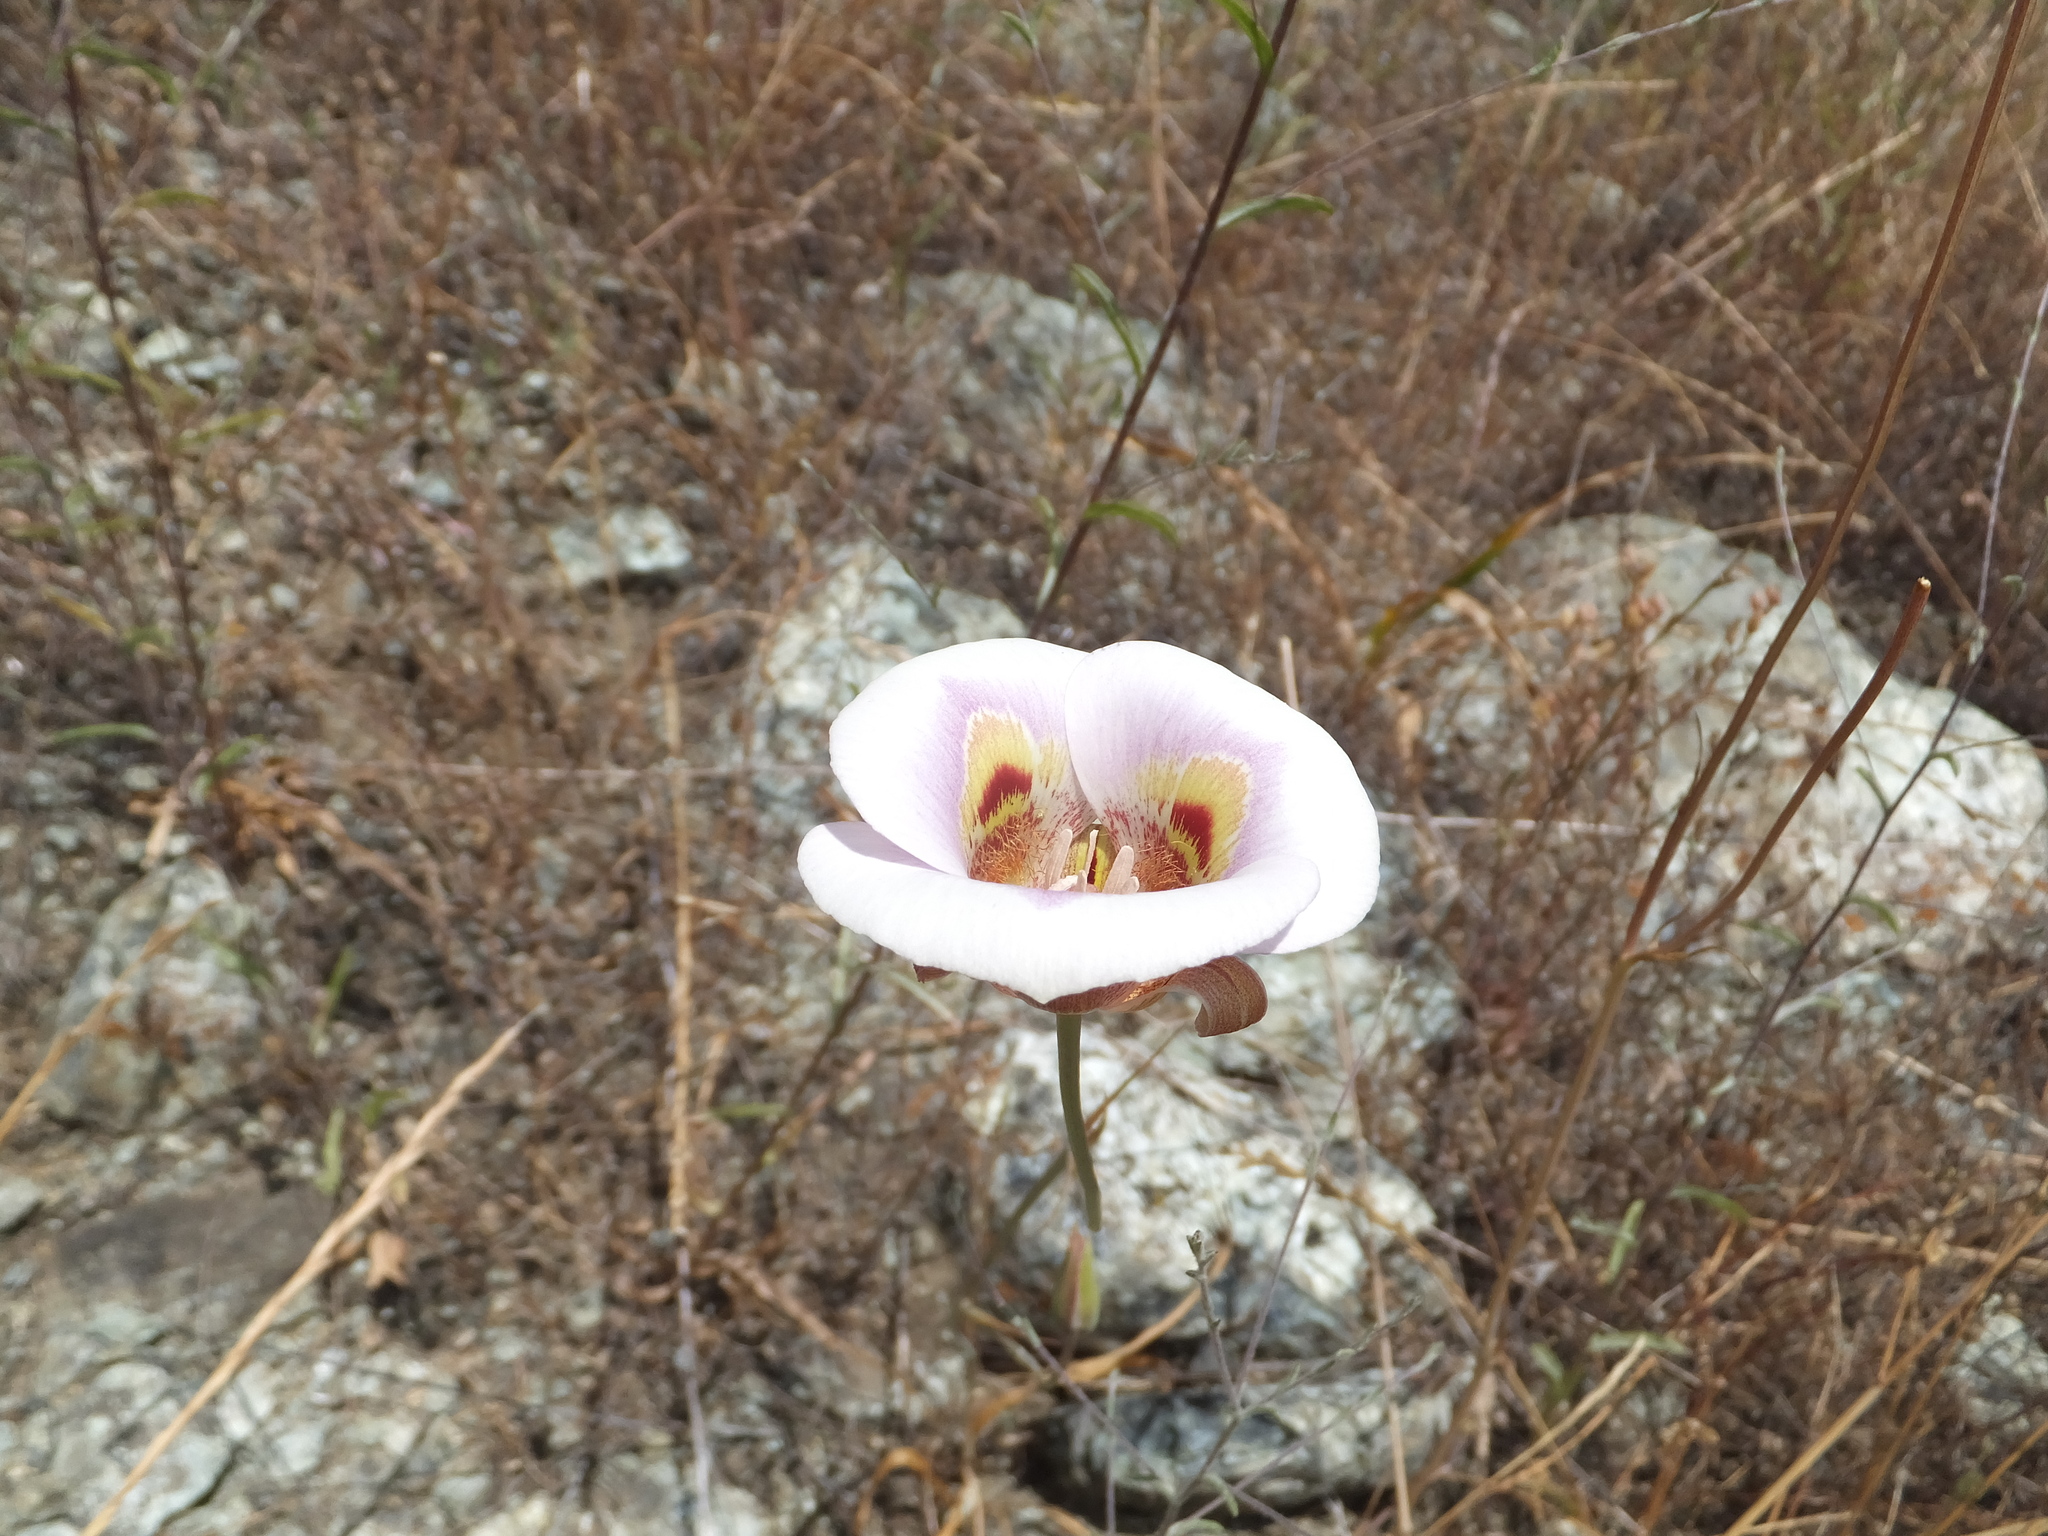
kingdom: Plantae
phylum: Tracheophyta
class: Liliopsida
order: Liliales
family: Liliaceae
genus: Calochortus
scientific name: Calochortus argillosus
